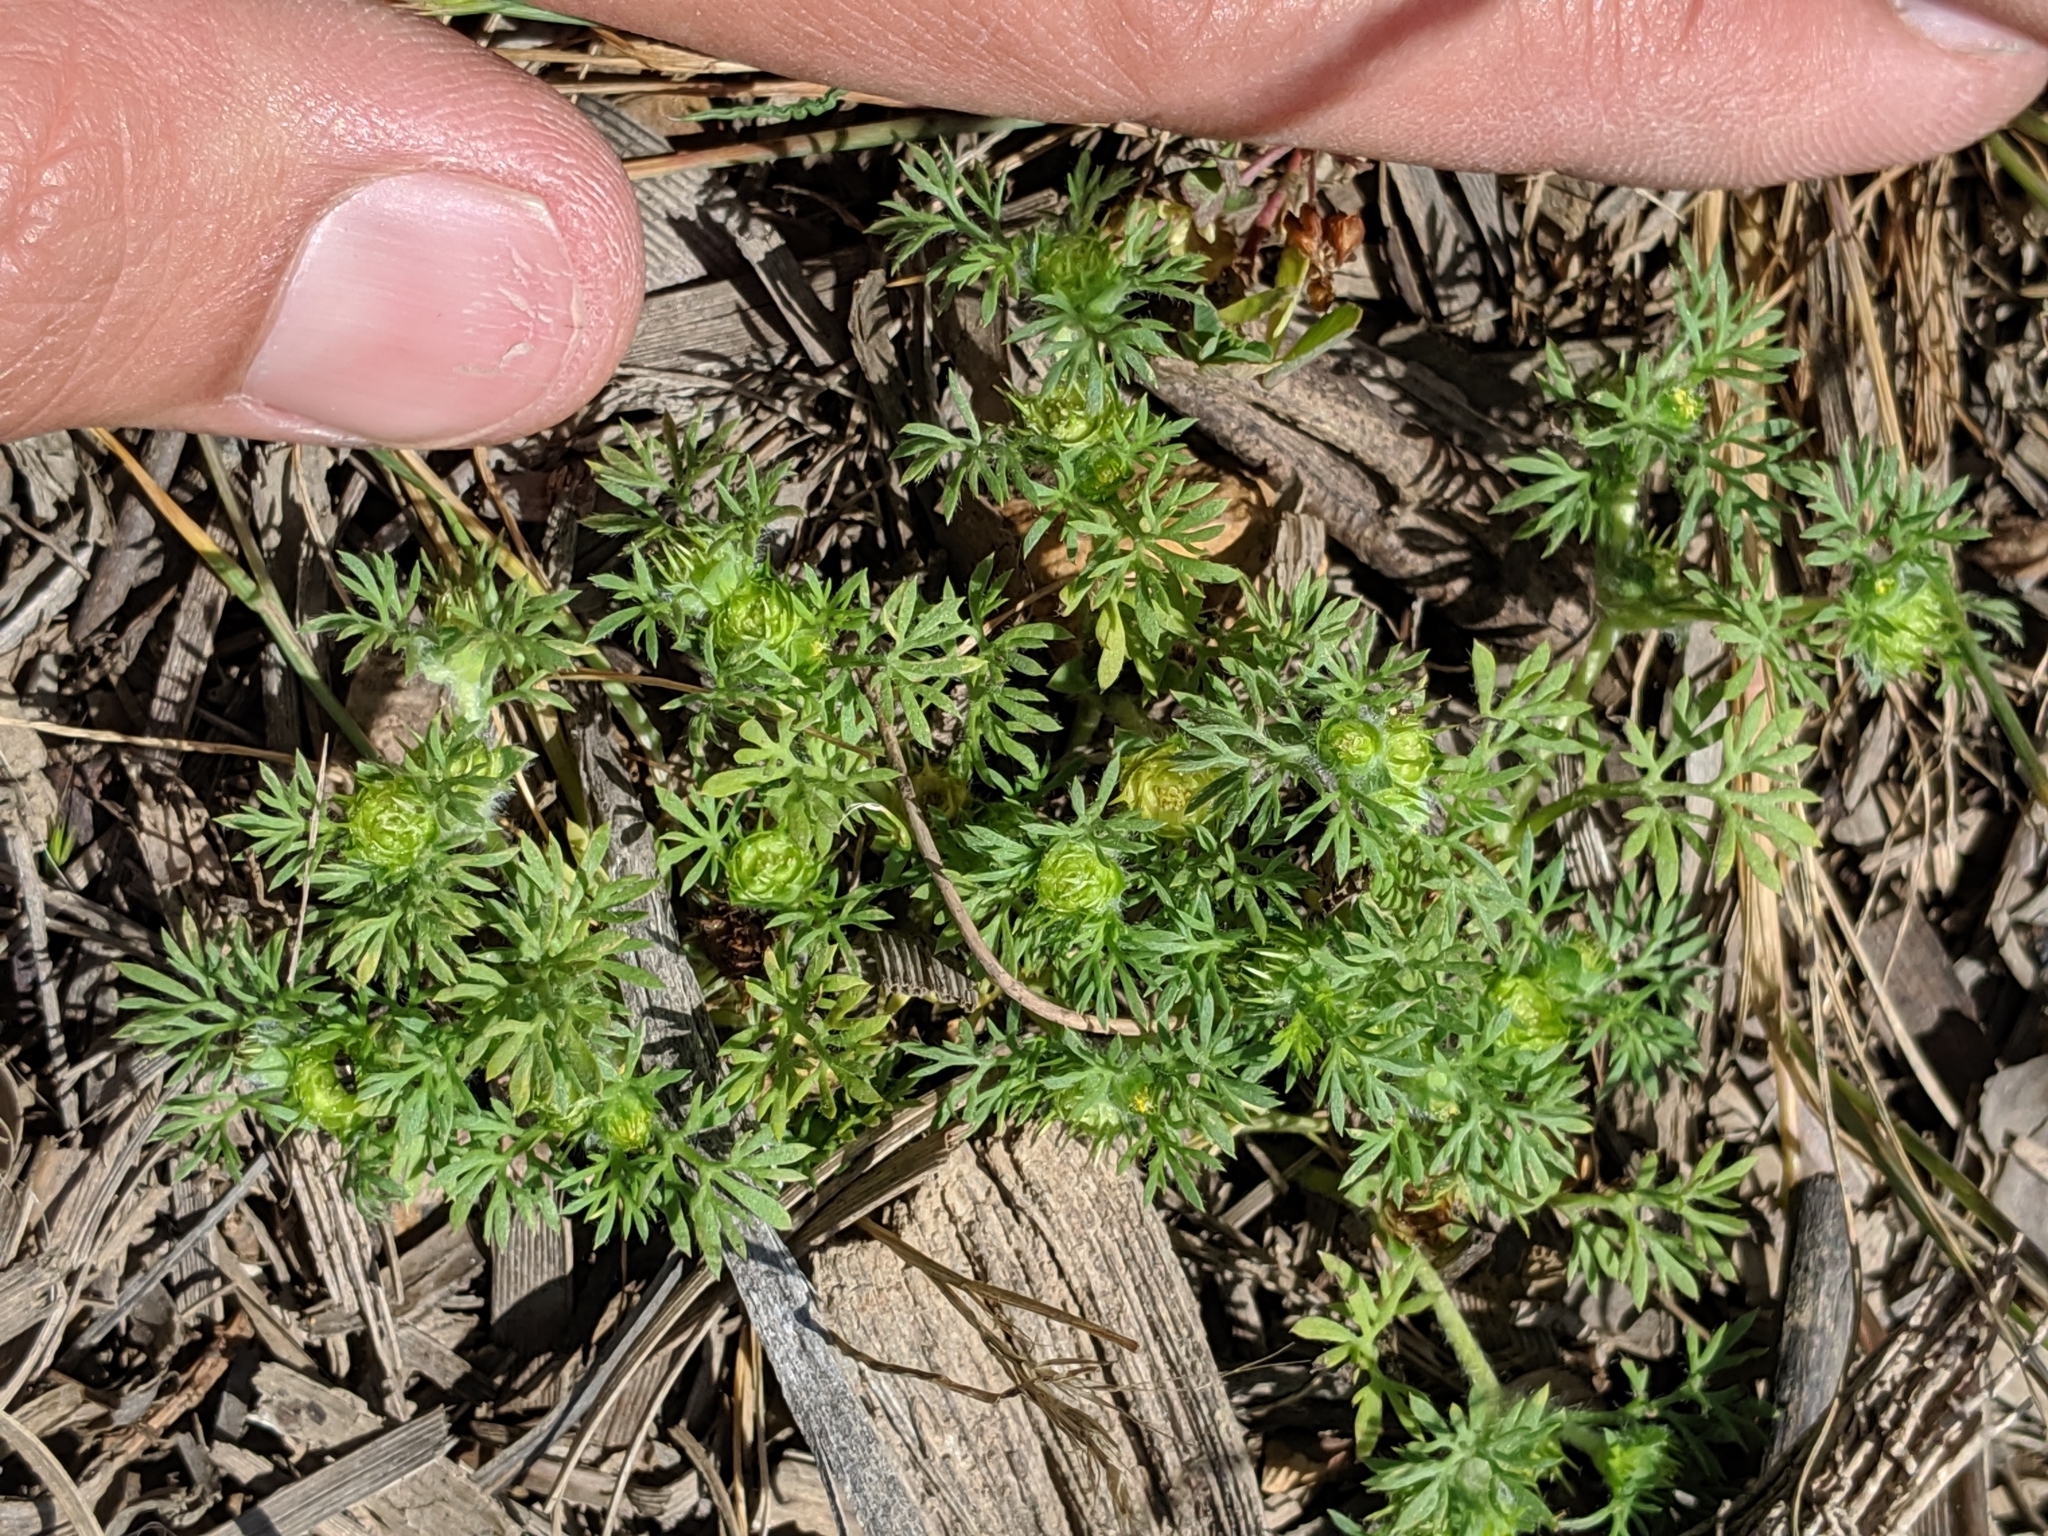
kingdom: Plantae
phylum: Tracheophyta
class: Magnoliopsida
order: Asterales
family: Asteraceae
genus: Soliva
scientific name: Soliva sessilis
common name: Field burrweed
